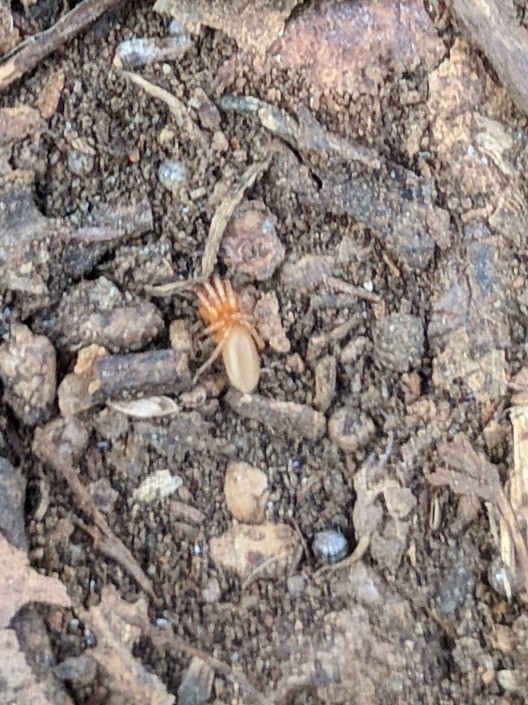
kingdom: Animalia
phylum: Arthropoda
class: Arachnida
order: Araneae
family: Dysderidae
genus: Dysdera
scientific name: Dysdera crocata
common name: Woodlouse spider
